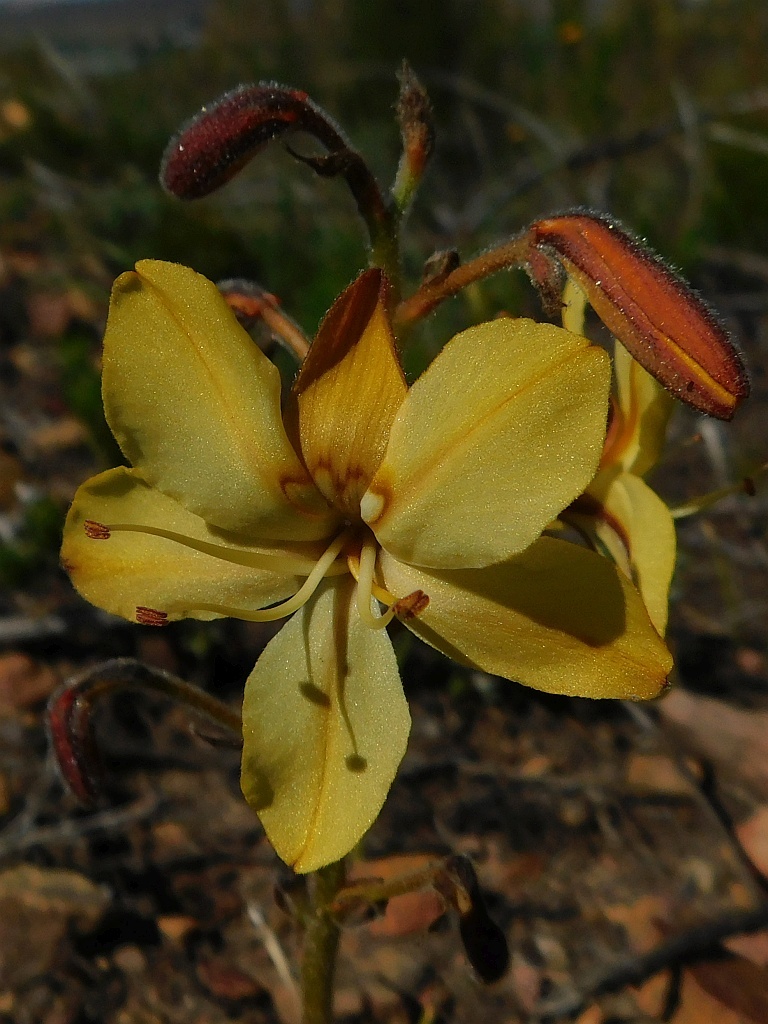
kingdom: Plantae
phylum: Tracheophyta
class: Liliopsida
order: Commelinales
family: Haemodoraceae
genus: Wachendorfia
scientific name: Wachendorfia paniculata
